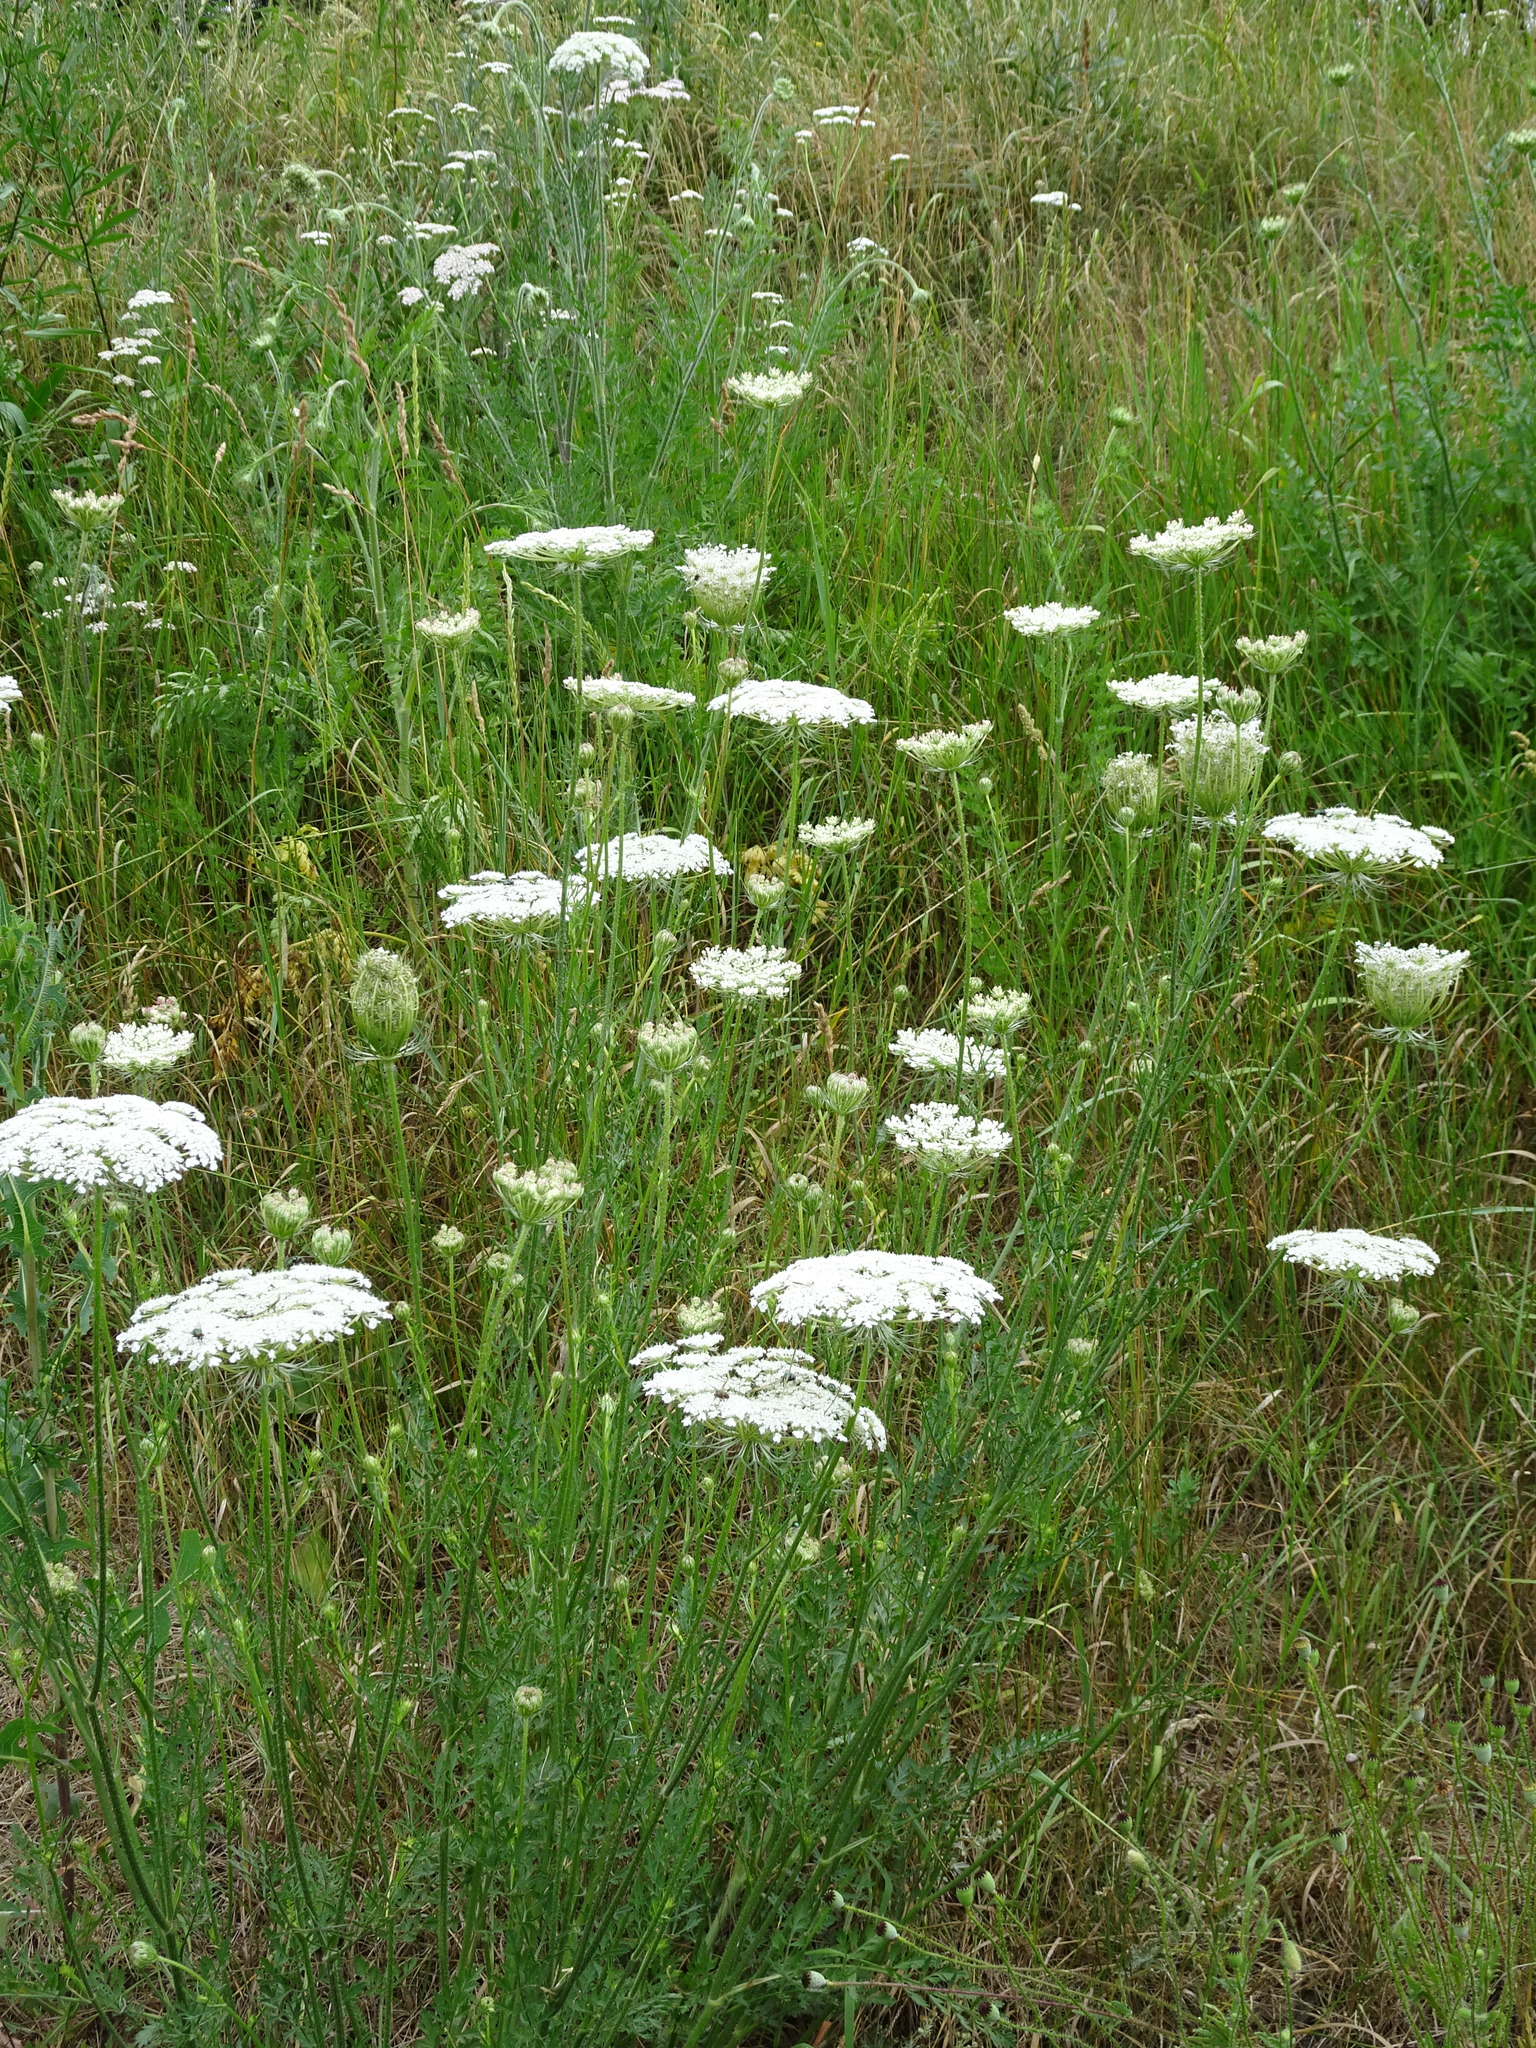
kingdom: Plantae
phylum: Tracheophyta
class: Magnoliopsida
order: Apiales
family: Apiaceae
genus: Daucus
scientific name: Daucus carota
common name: Wild carrot
